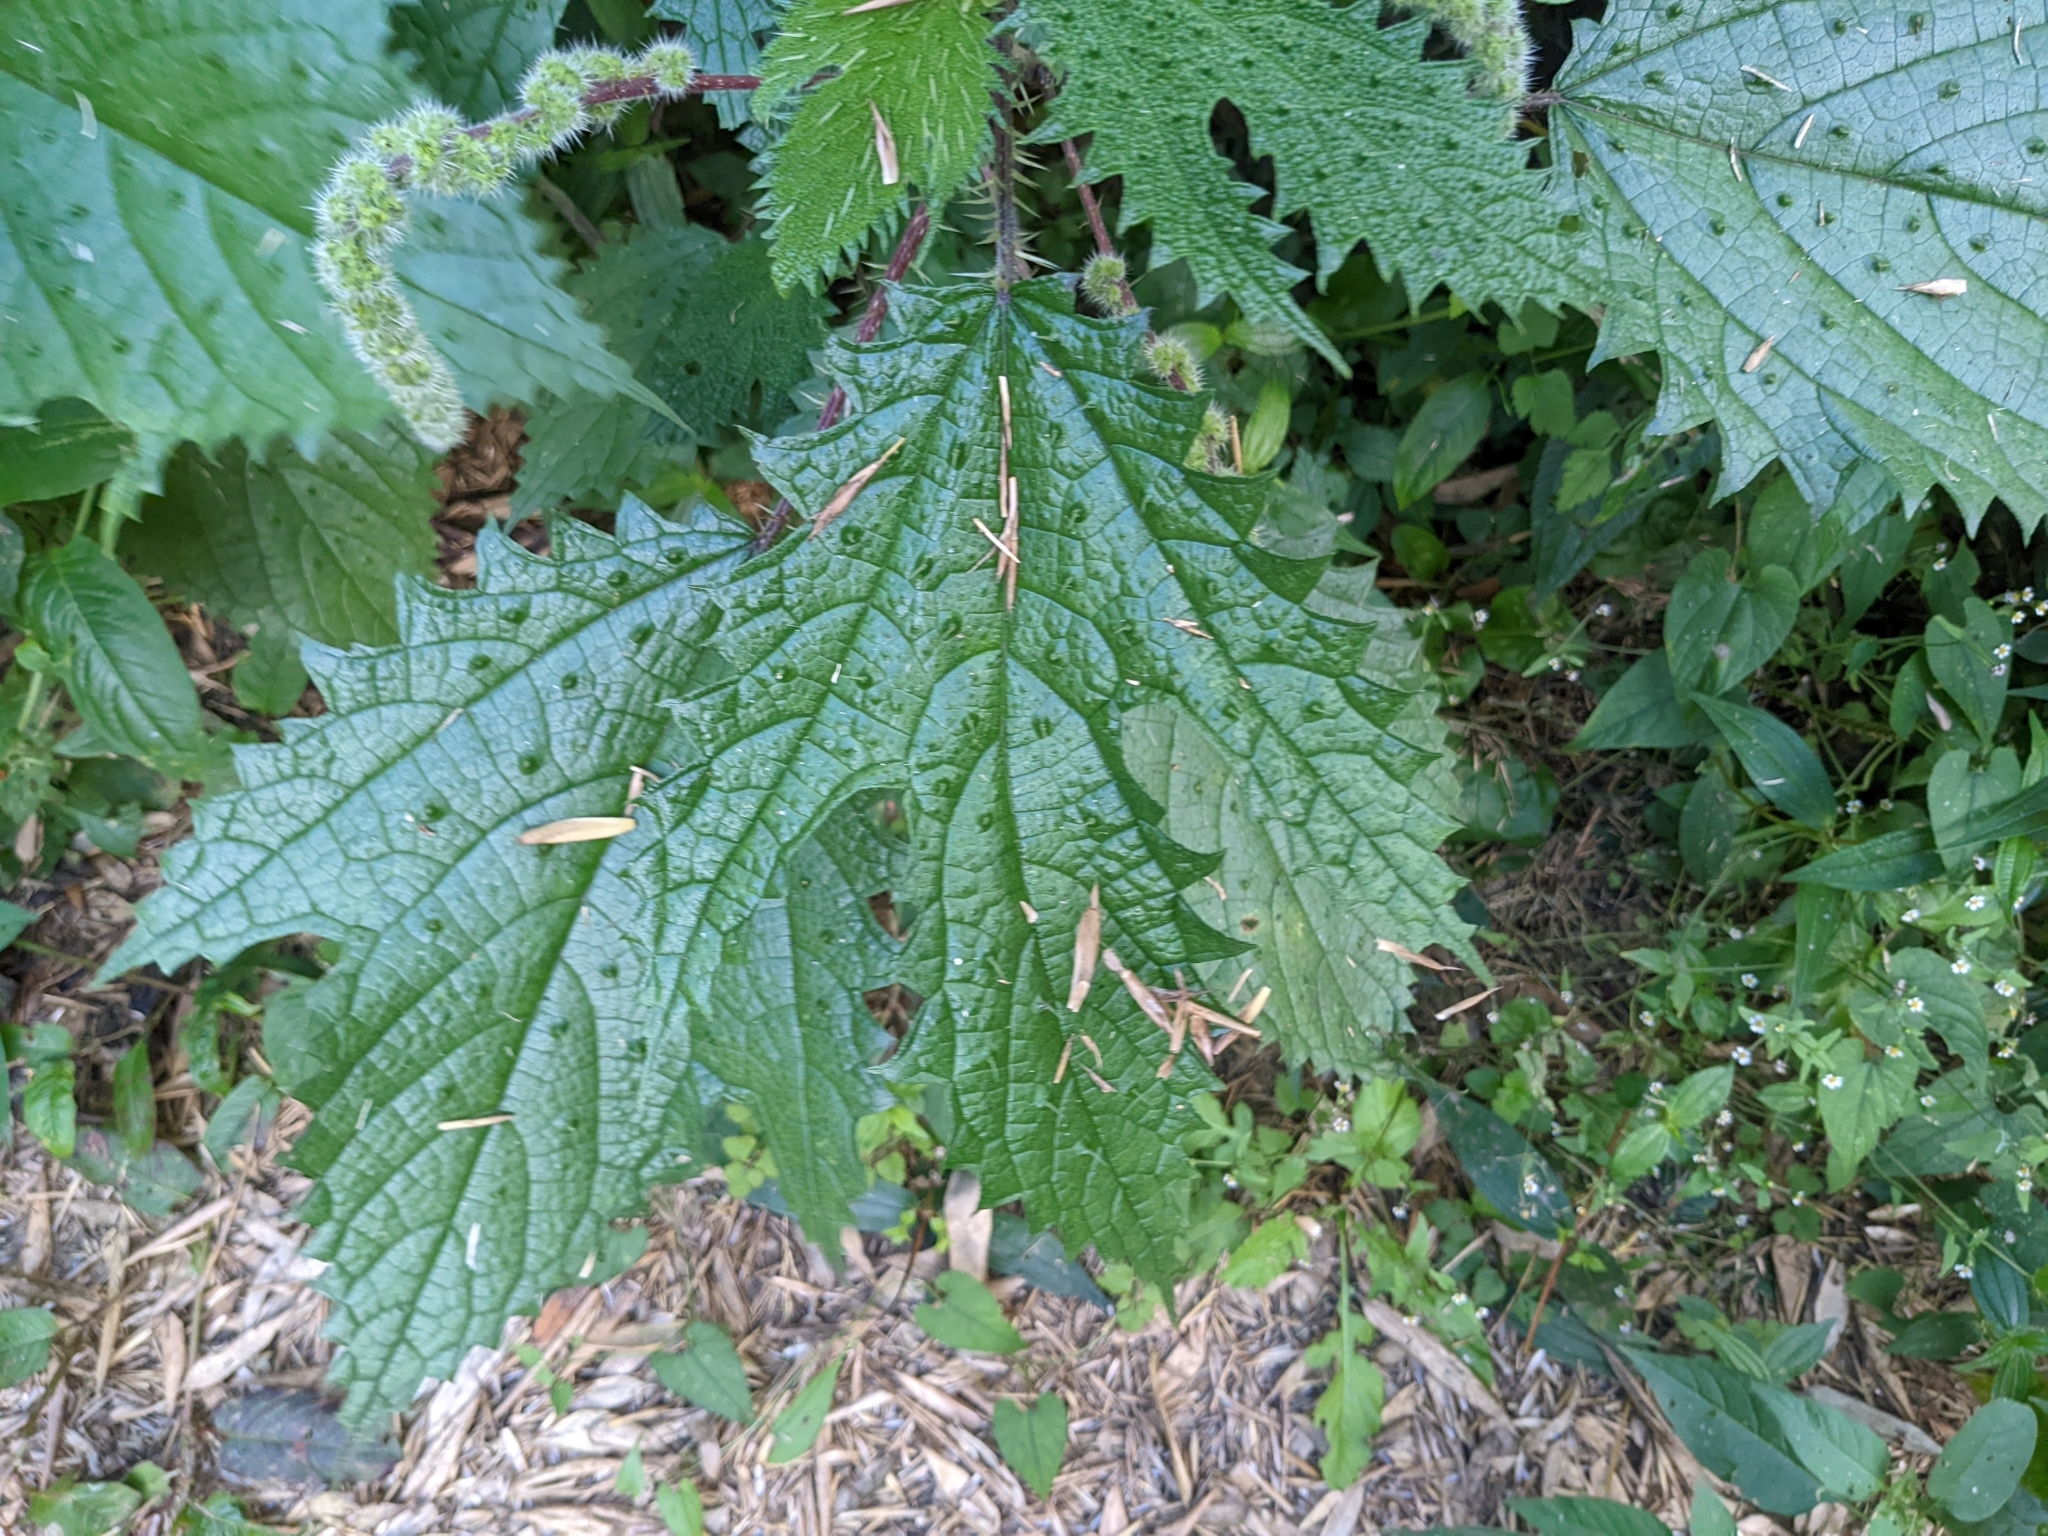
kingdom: Plantae
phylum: Tracheophyta
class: Magnoliopsida
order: Rosales
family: Urticaceae
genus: Girardinia
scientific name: Girardinia diversifolia
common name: Himalayan-nettle
